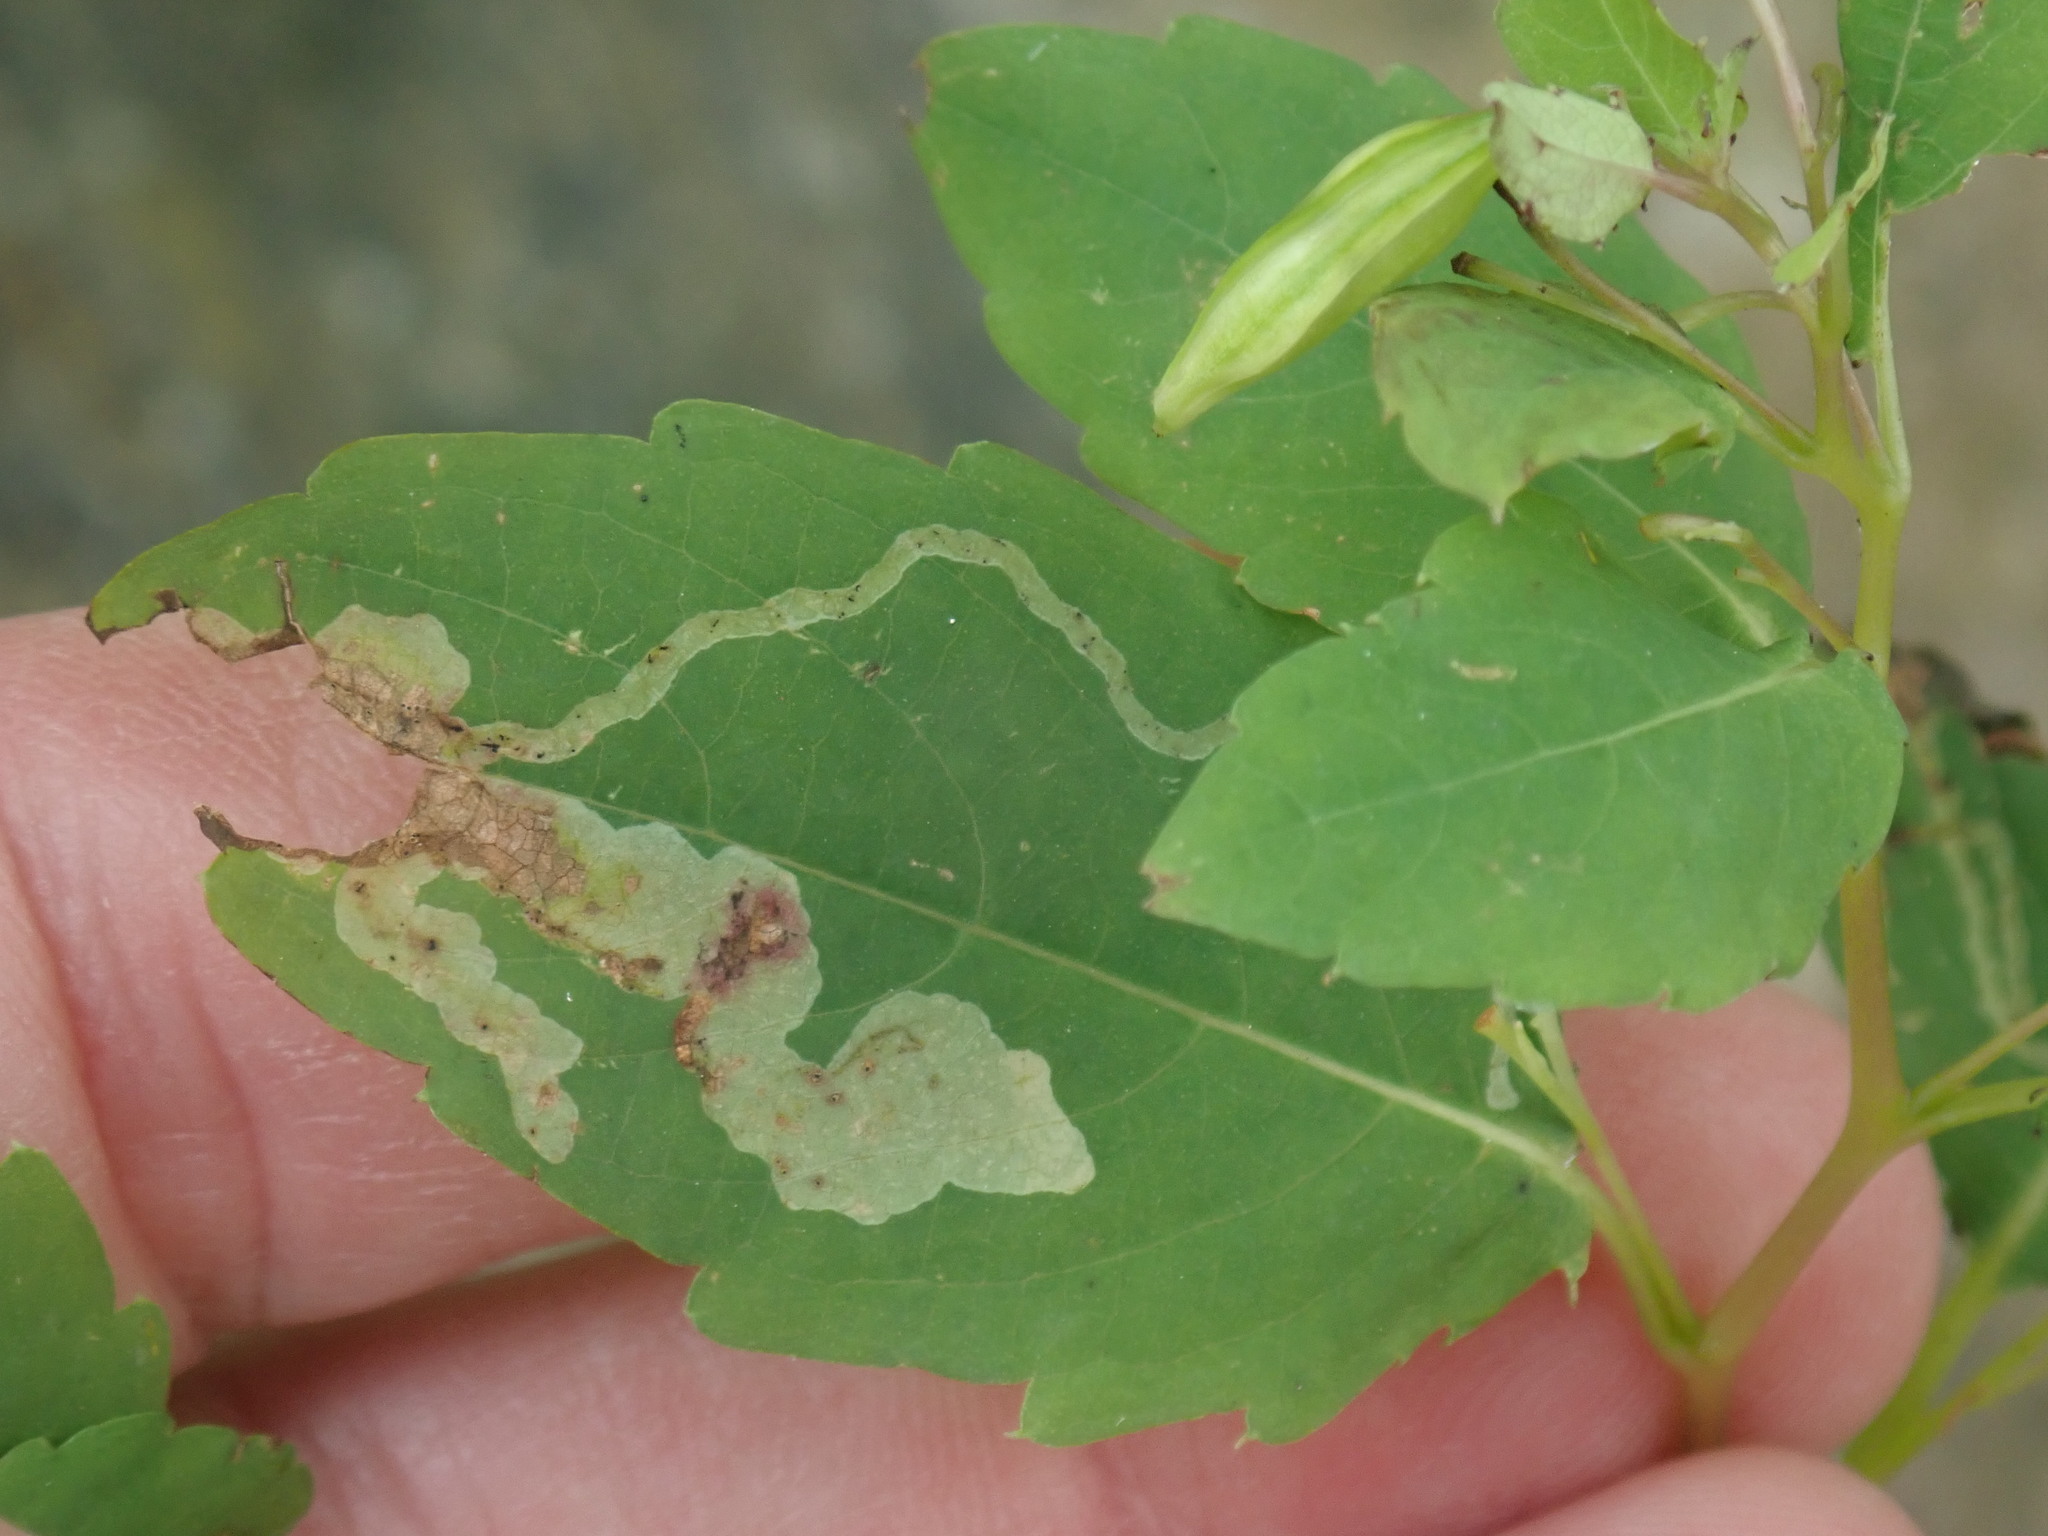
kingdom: Animalia
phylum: Arthropoda
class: Insecta
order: Diptera
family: Agromyzidae
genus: Phytoliriomyza
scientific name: Phytoliriomyza melampyga
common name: Jewelweed leaf-miner fly
